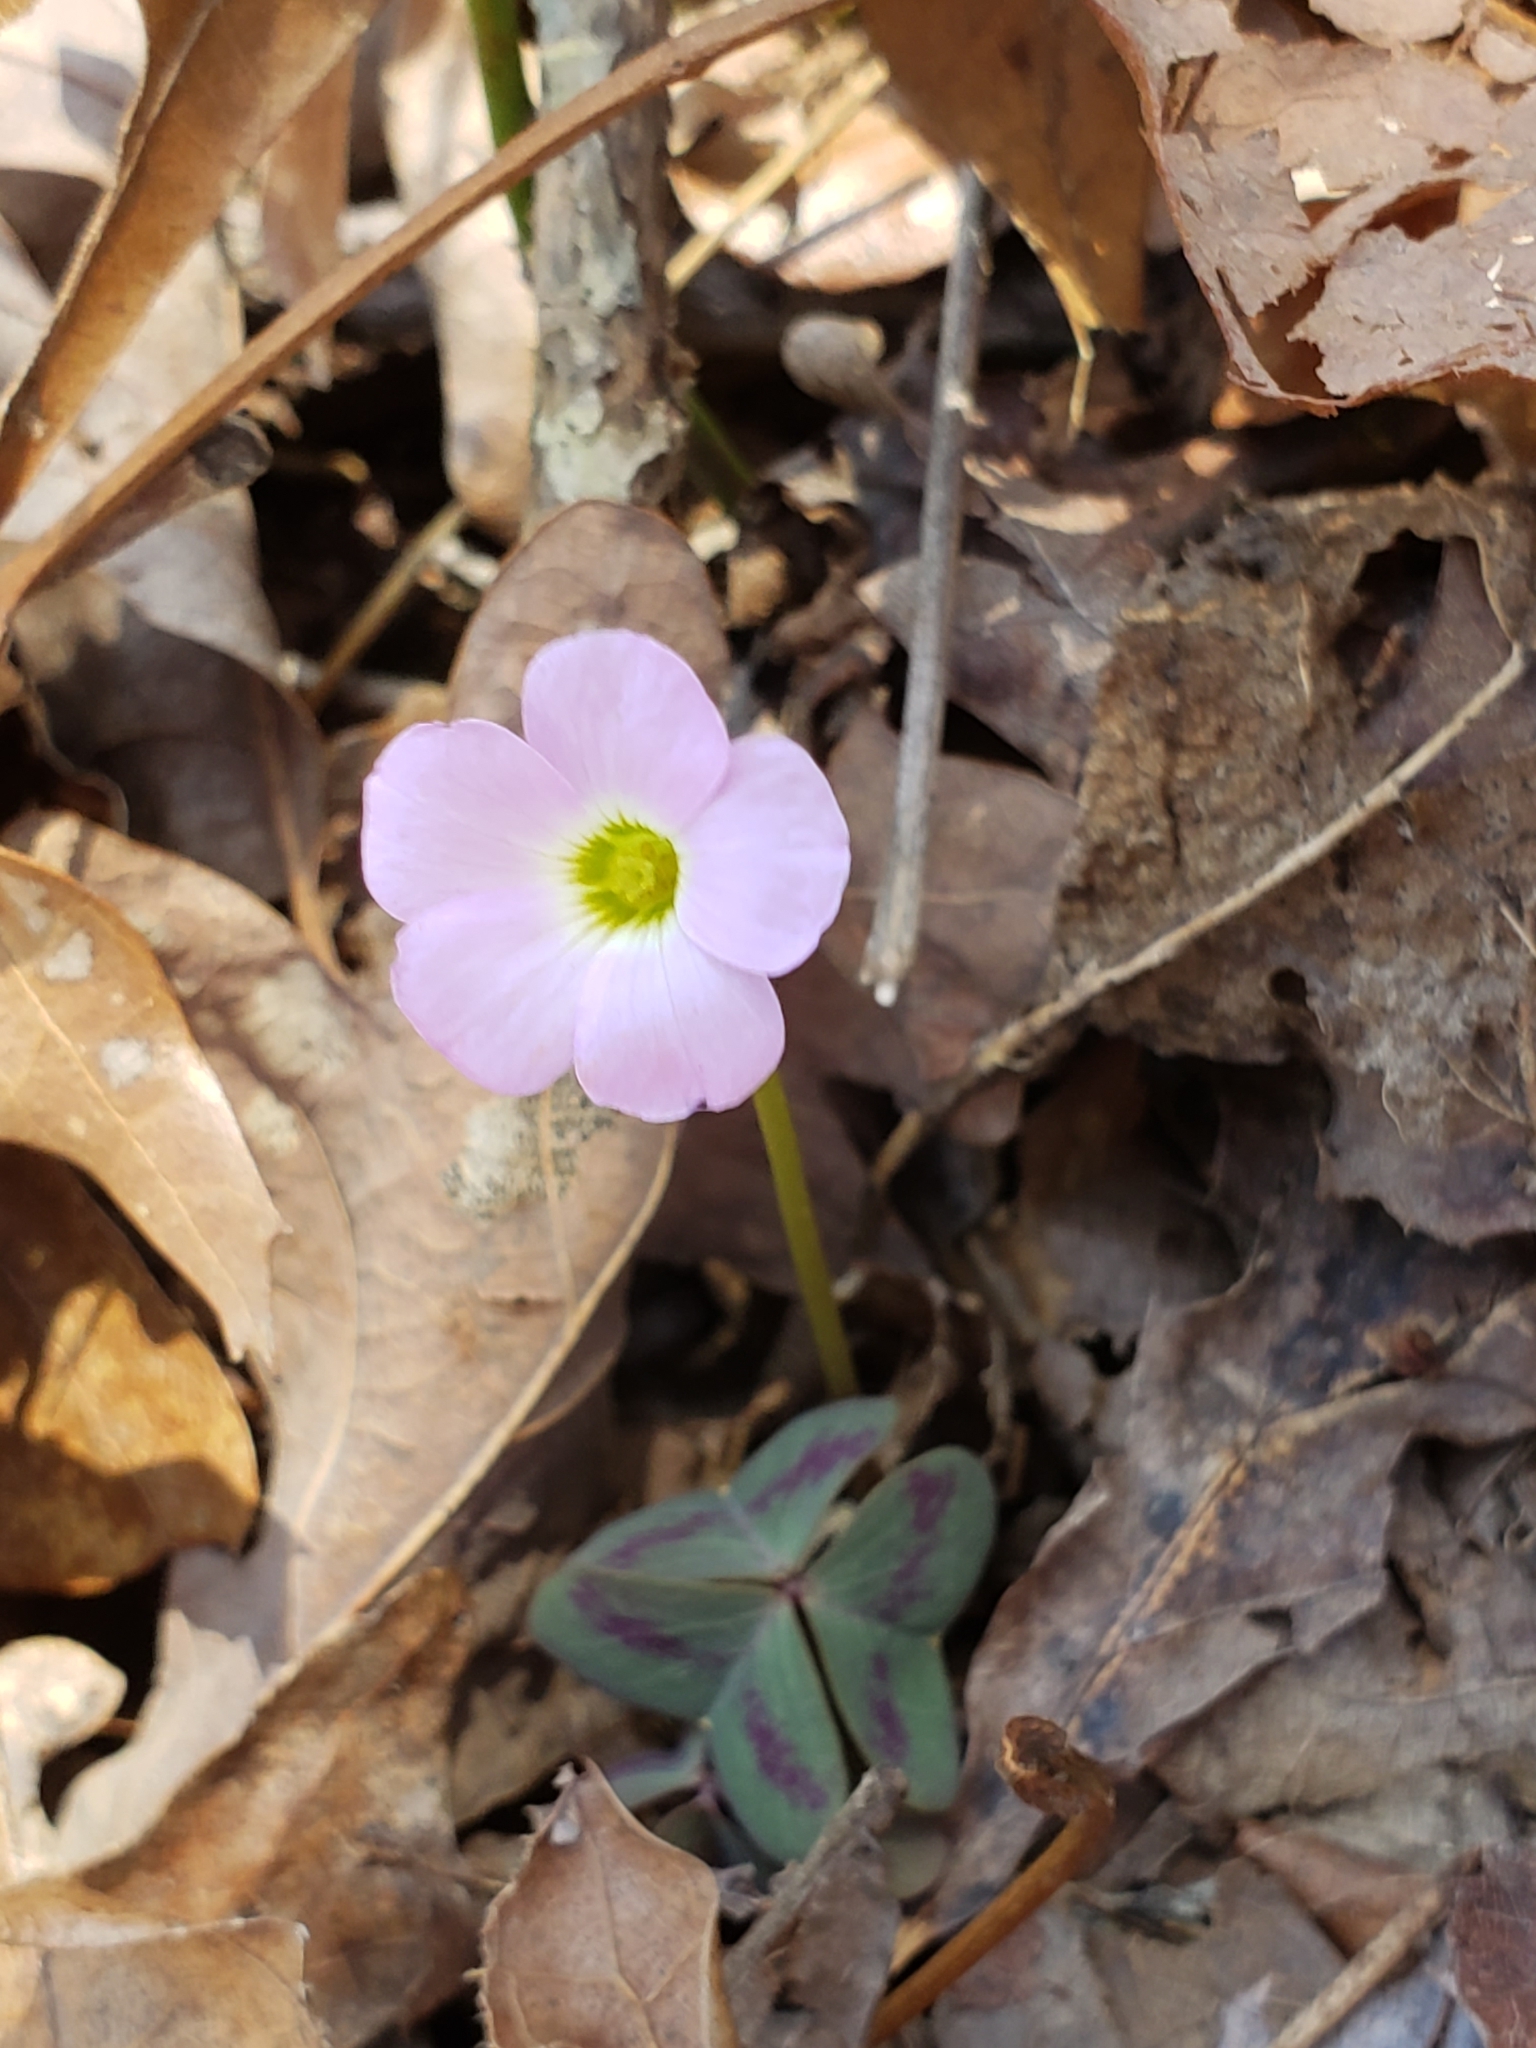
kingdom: Plantae
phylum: Tracheophyta
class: Magnoliopsida
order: Oxalidales
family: Oxalidaceae
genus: Oxalis
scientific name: Oxalis violacea
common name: Violet wood-sorrel
